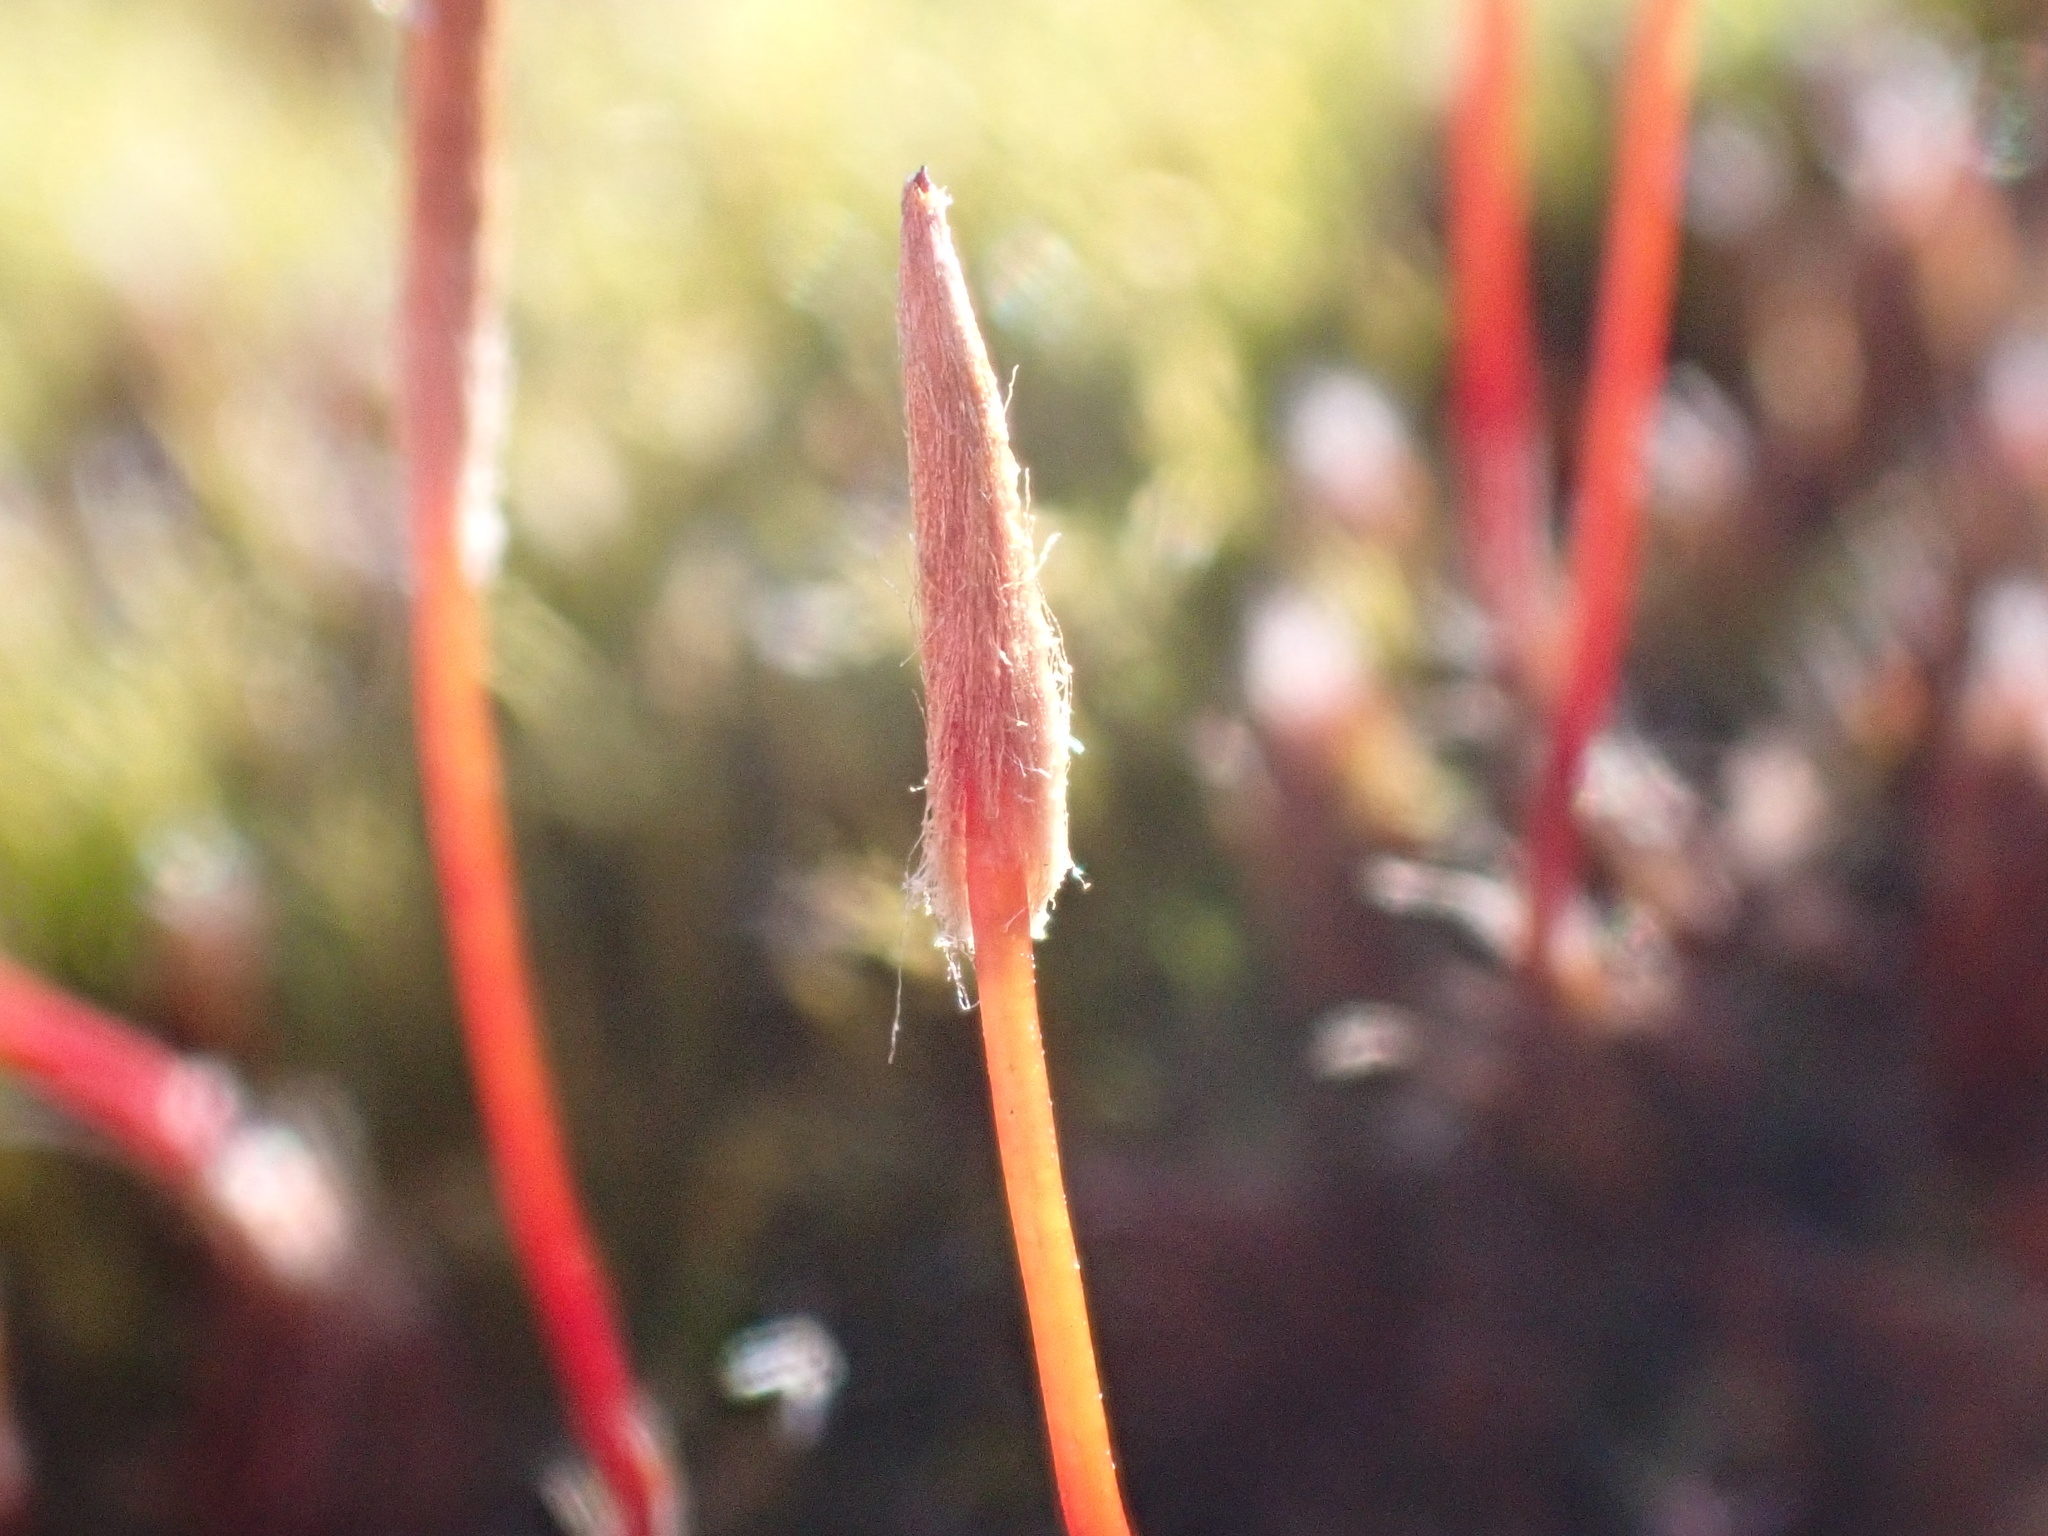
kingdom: Plantae
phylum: Bryophyta
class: Polytrichopsida
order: Polytrichales
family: Polytrichaceae
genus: Polytrichum
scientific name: Polytrichum piliferum
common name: Bristly haircap
